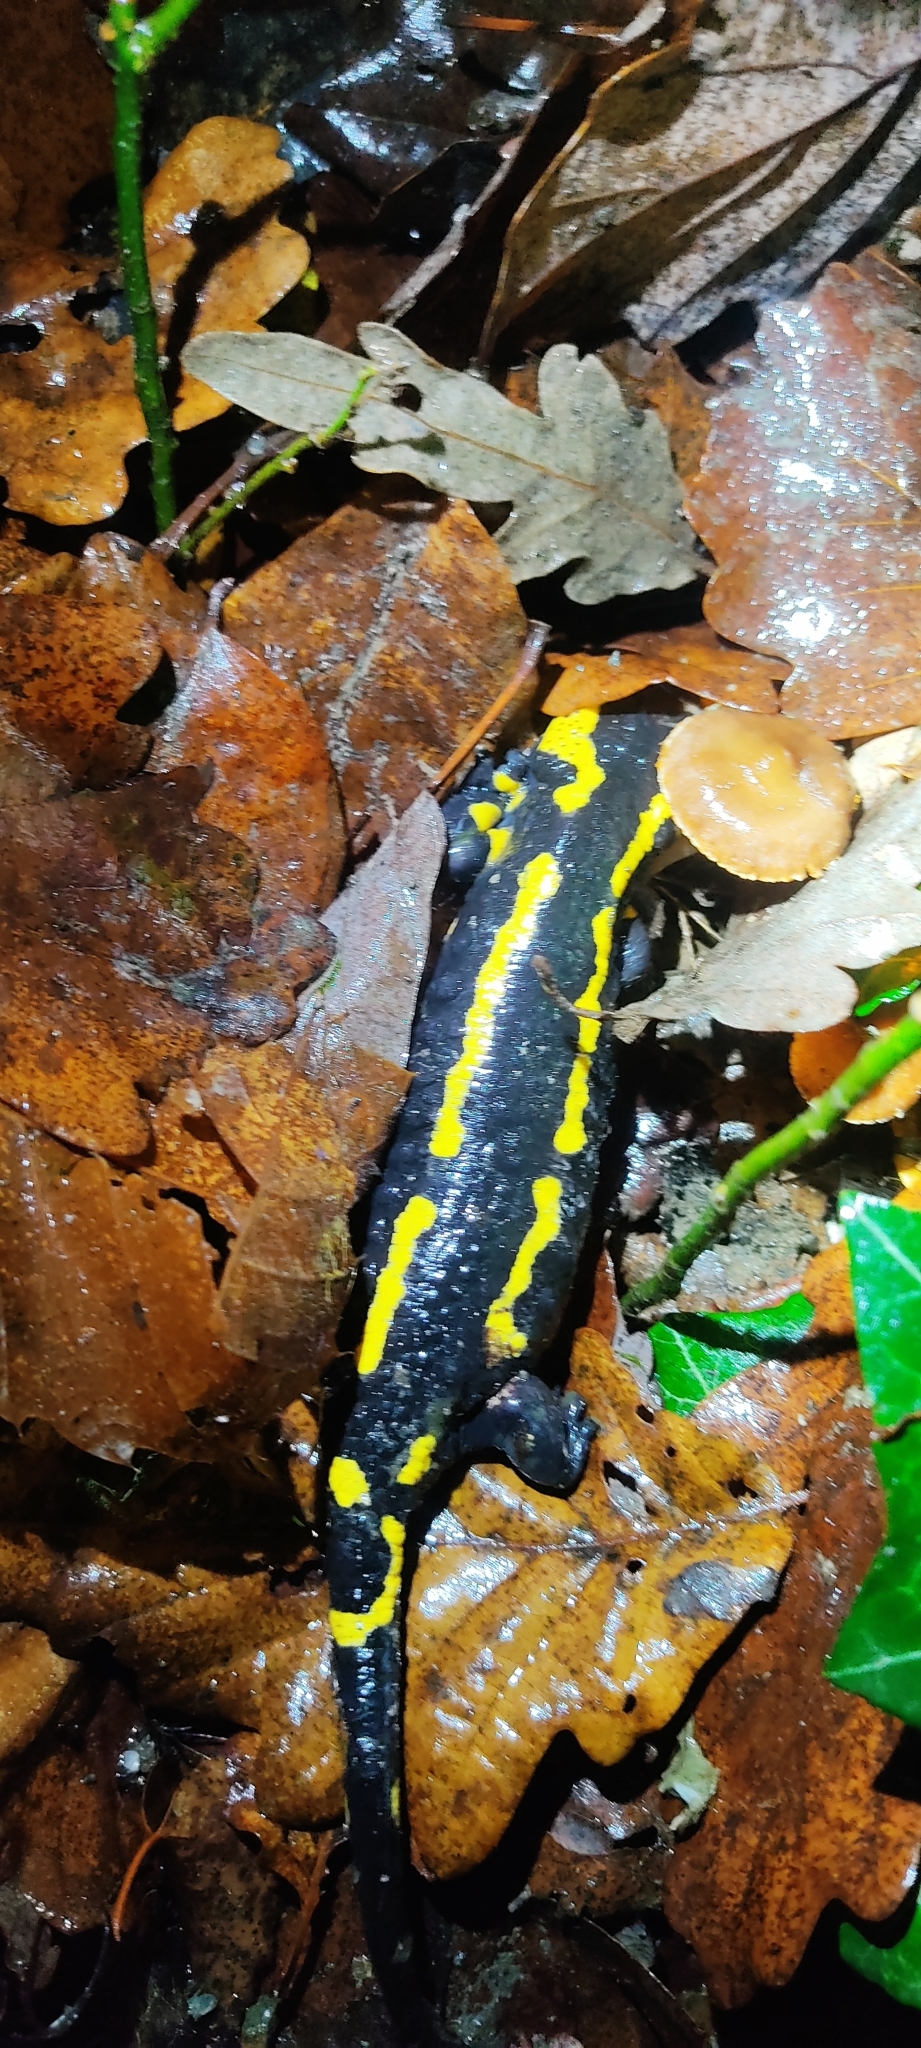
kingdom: Animalia
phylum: Chordata
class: Amphibia
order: Caudata
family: Salamandridae
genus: Salamandra
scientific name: Salamandra salamandra
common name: Fire salamander
